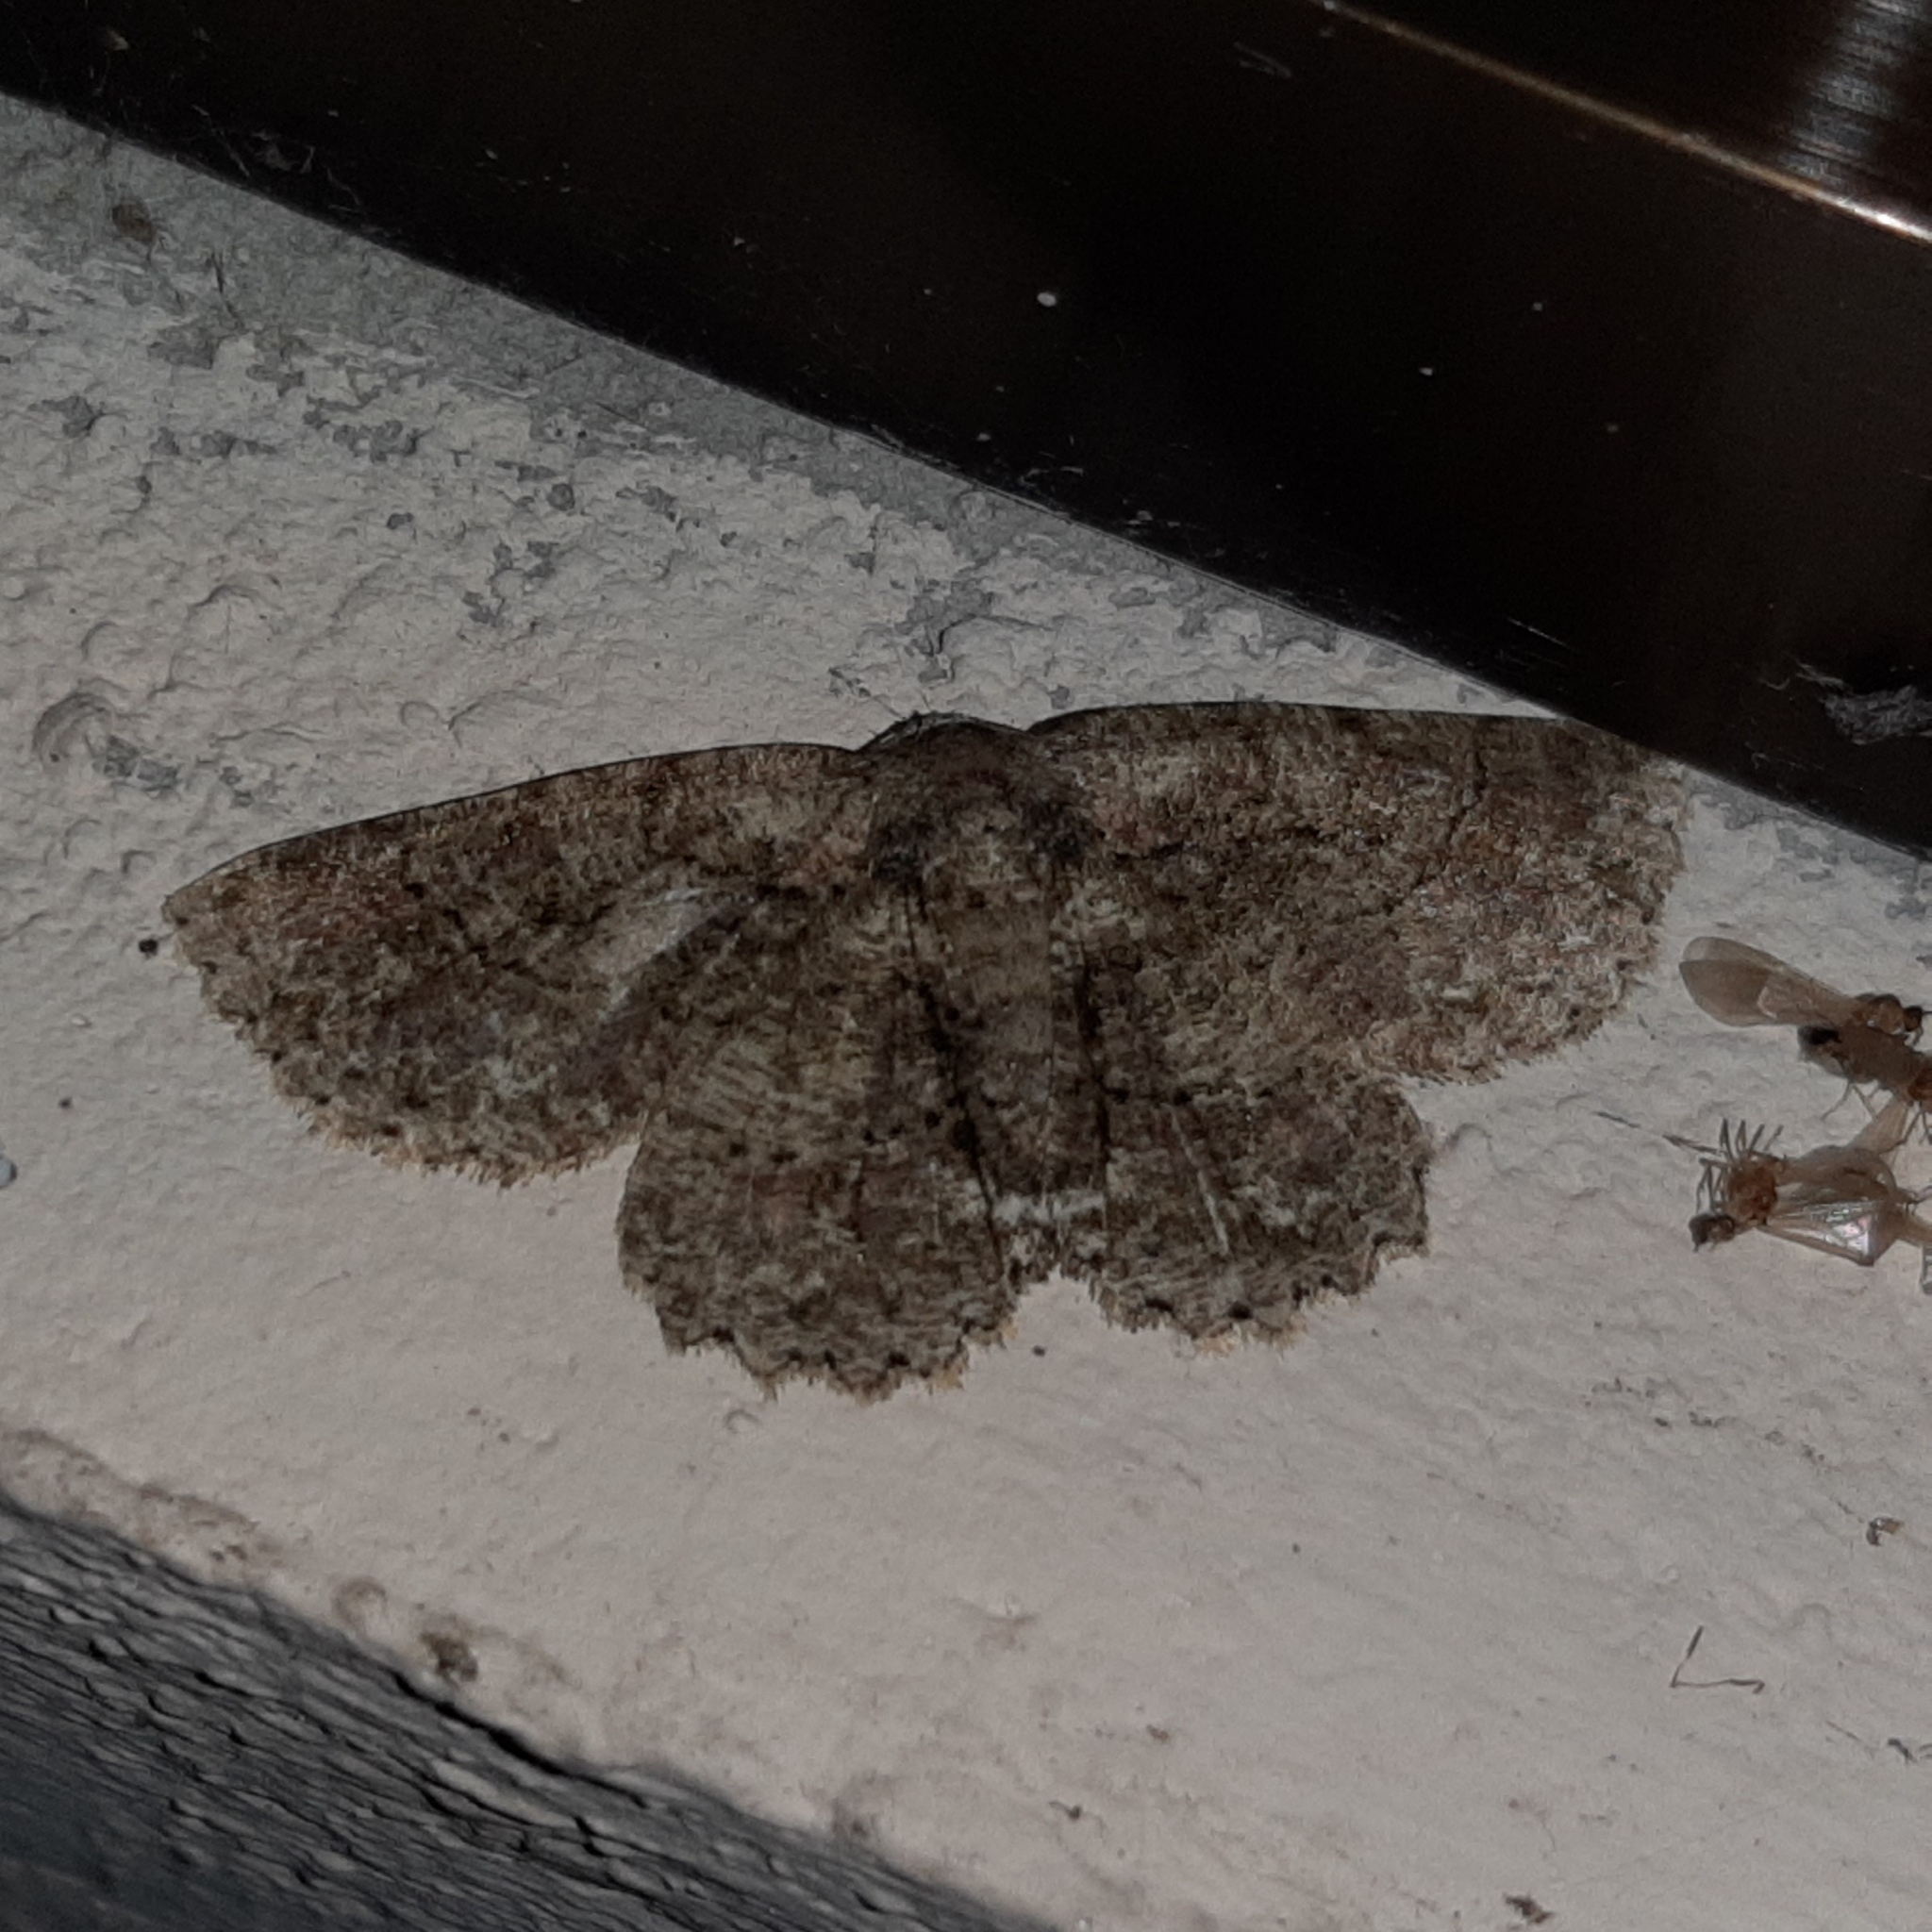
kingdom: Animalia
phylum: Arthropoda
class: Insecta
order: Lepidoptera
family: Geometridae
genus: Bryoptera
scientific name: Bryoptera subbrunnea
